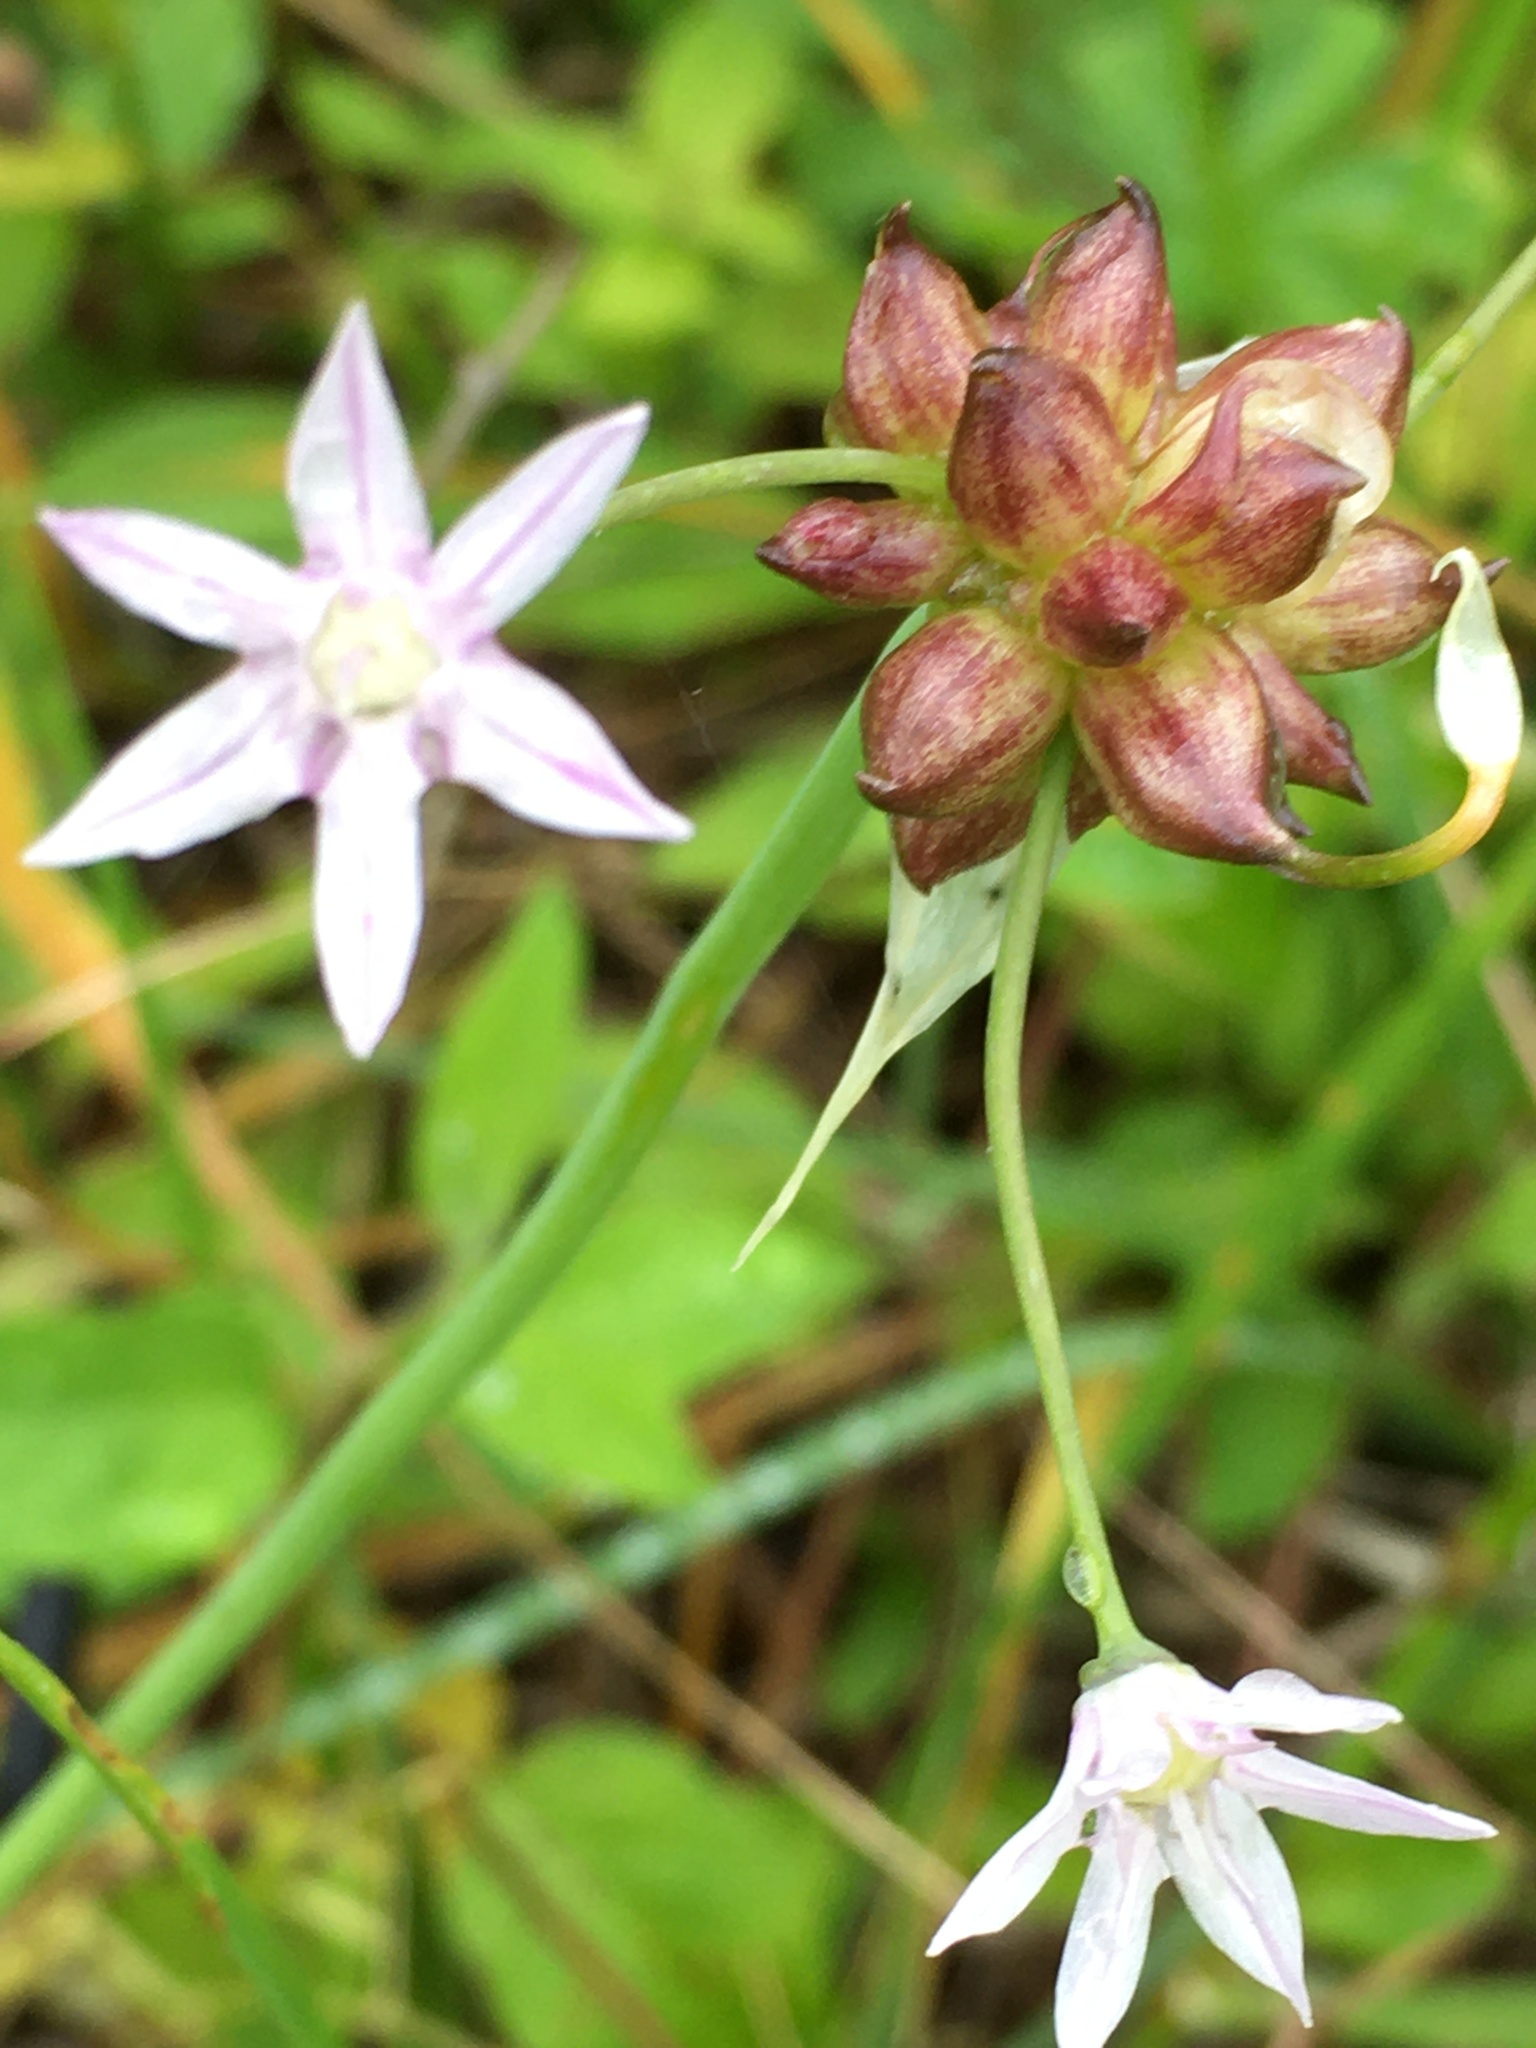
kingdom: Plantae
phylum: Tracheophyta
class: Liliopsida
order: Asparagales
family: Amaryllidaceae
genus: Allium
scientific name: Allium canadense
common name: Meadow garlic
